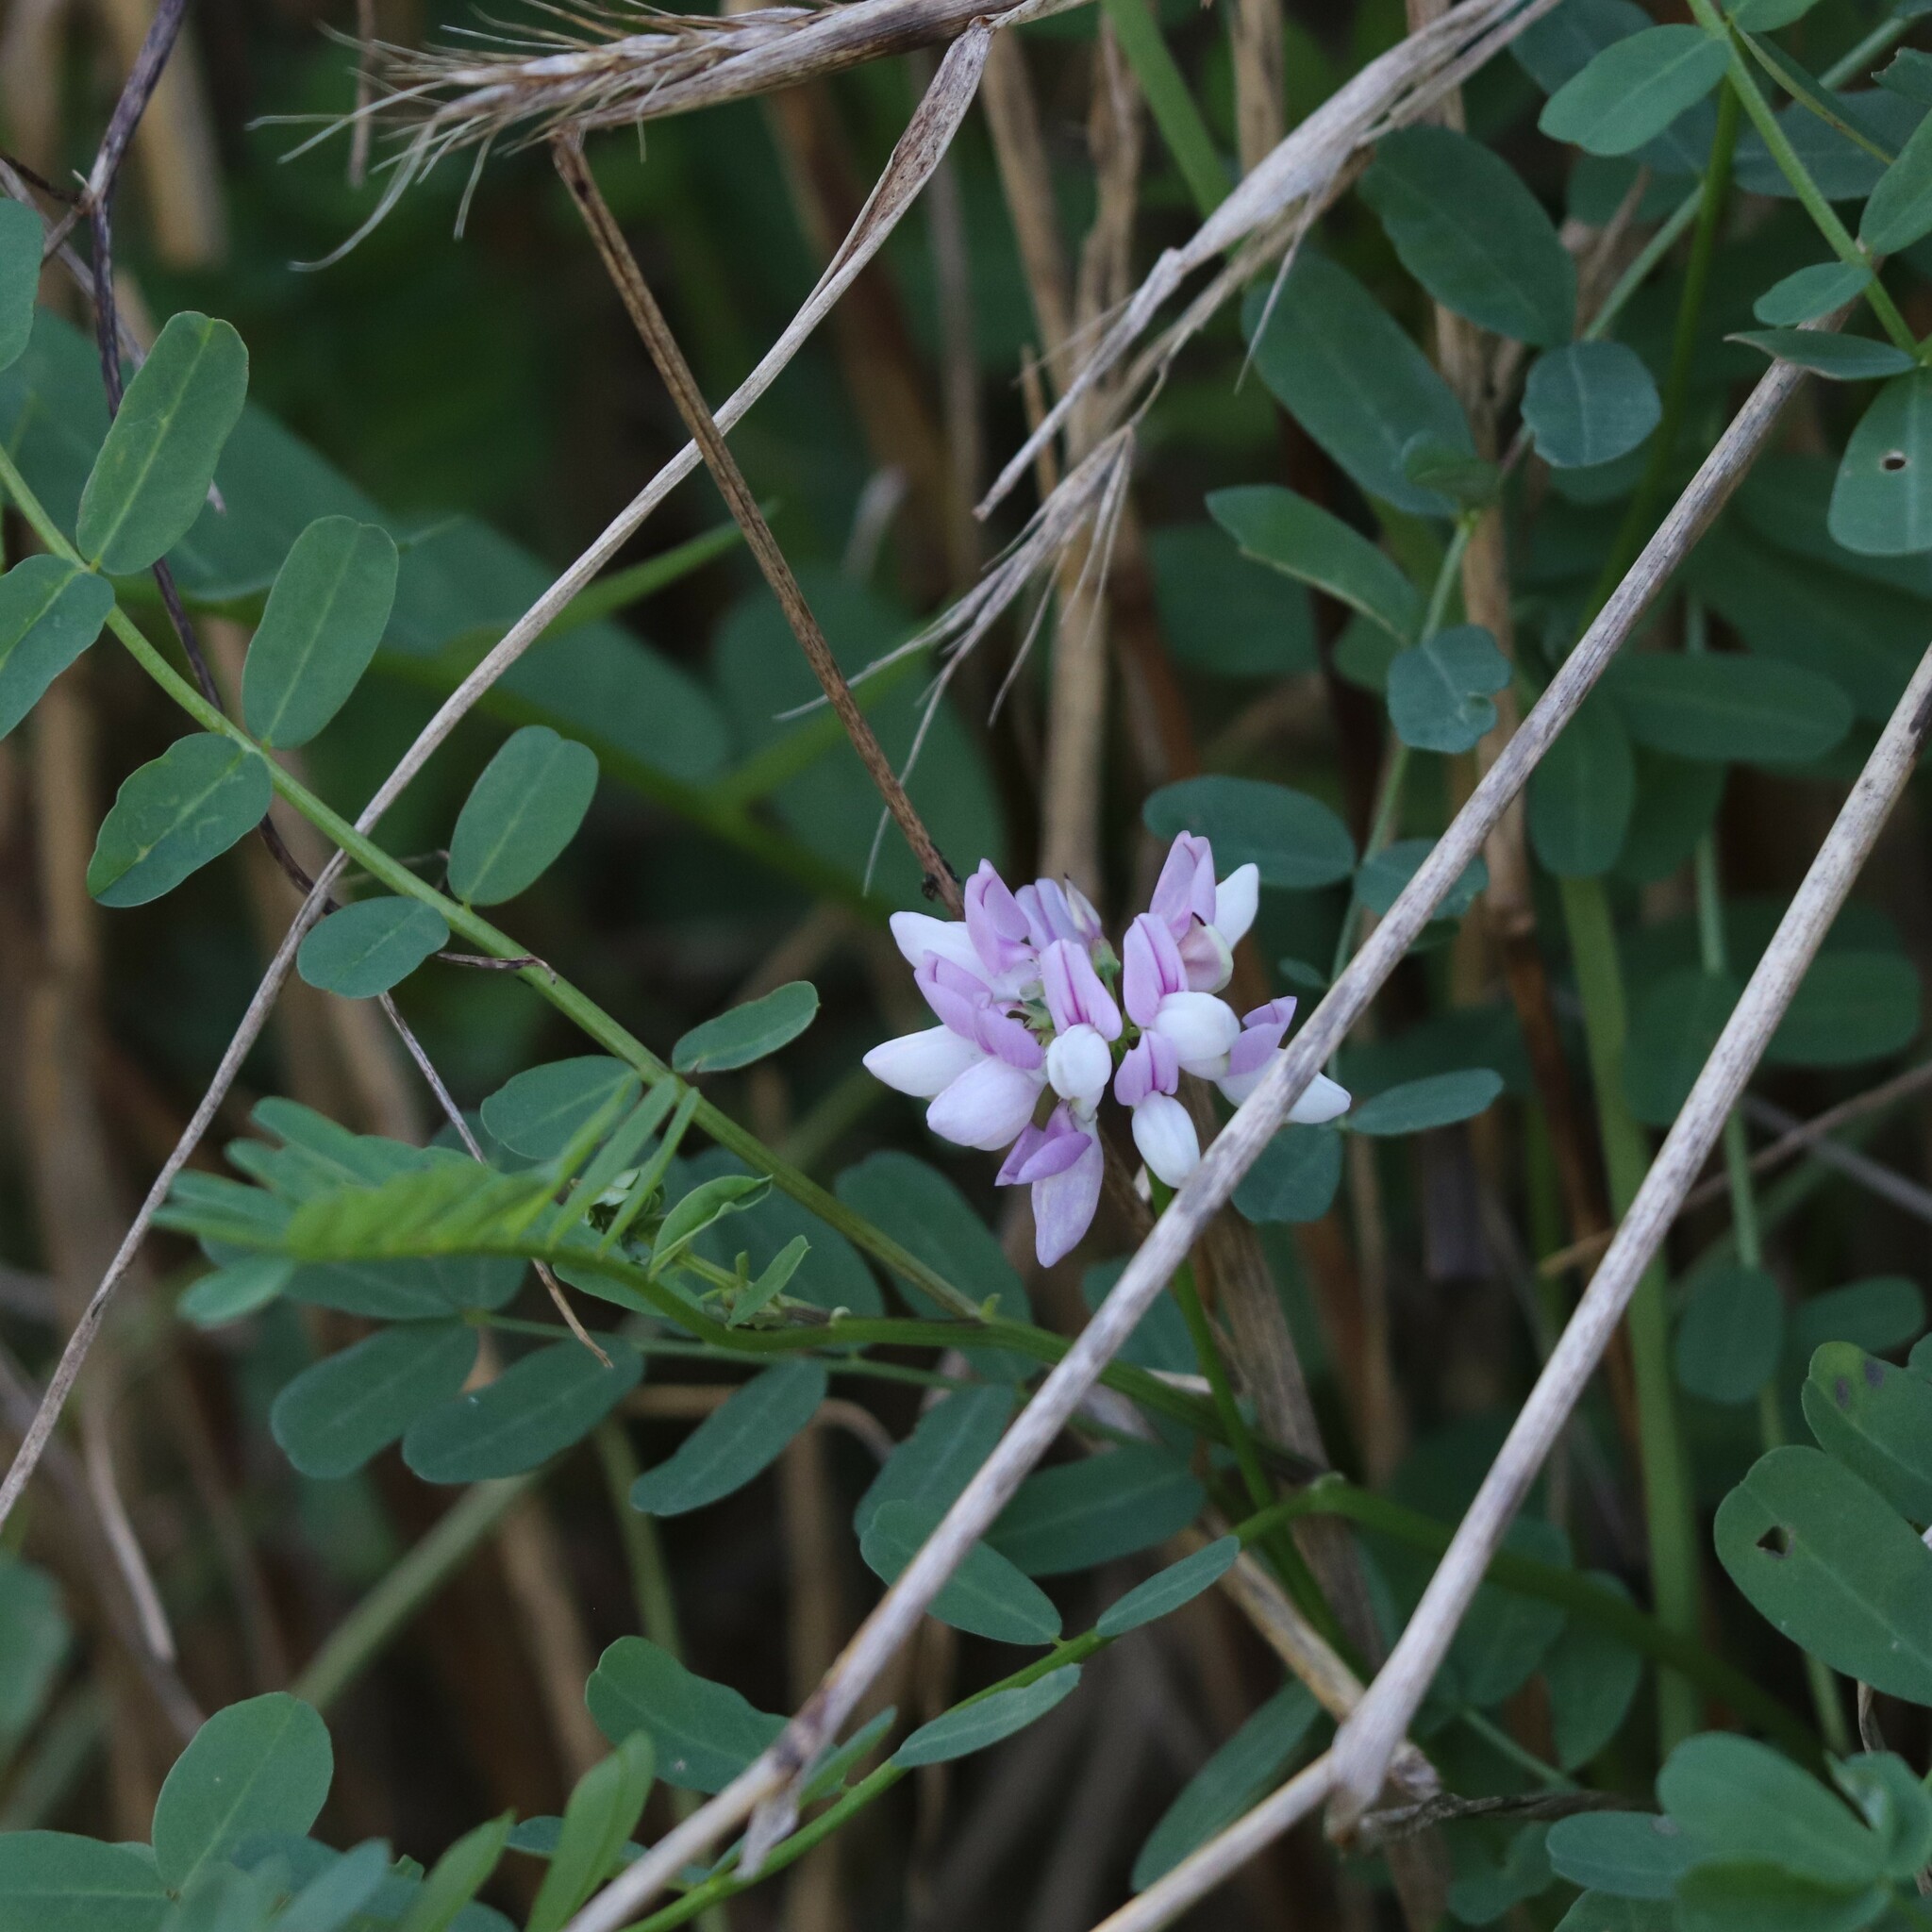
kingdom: Plantae
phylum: Tracheophyta
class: Magnoliopsida
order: Fabales
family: Fabaceae
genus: Coronilla
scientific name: Coronilla varia
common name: Crownvetch
